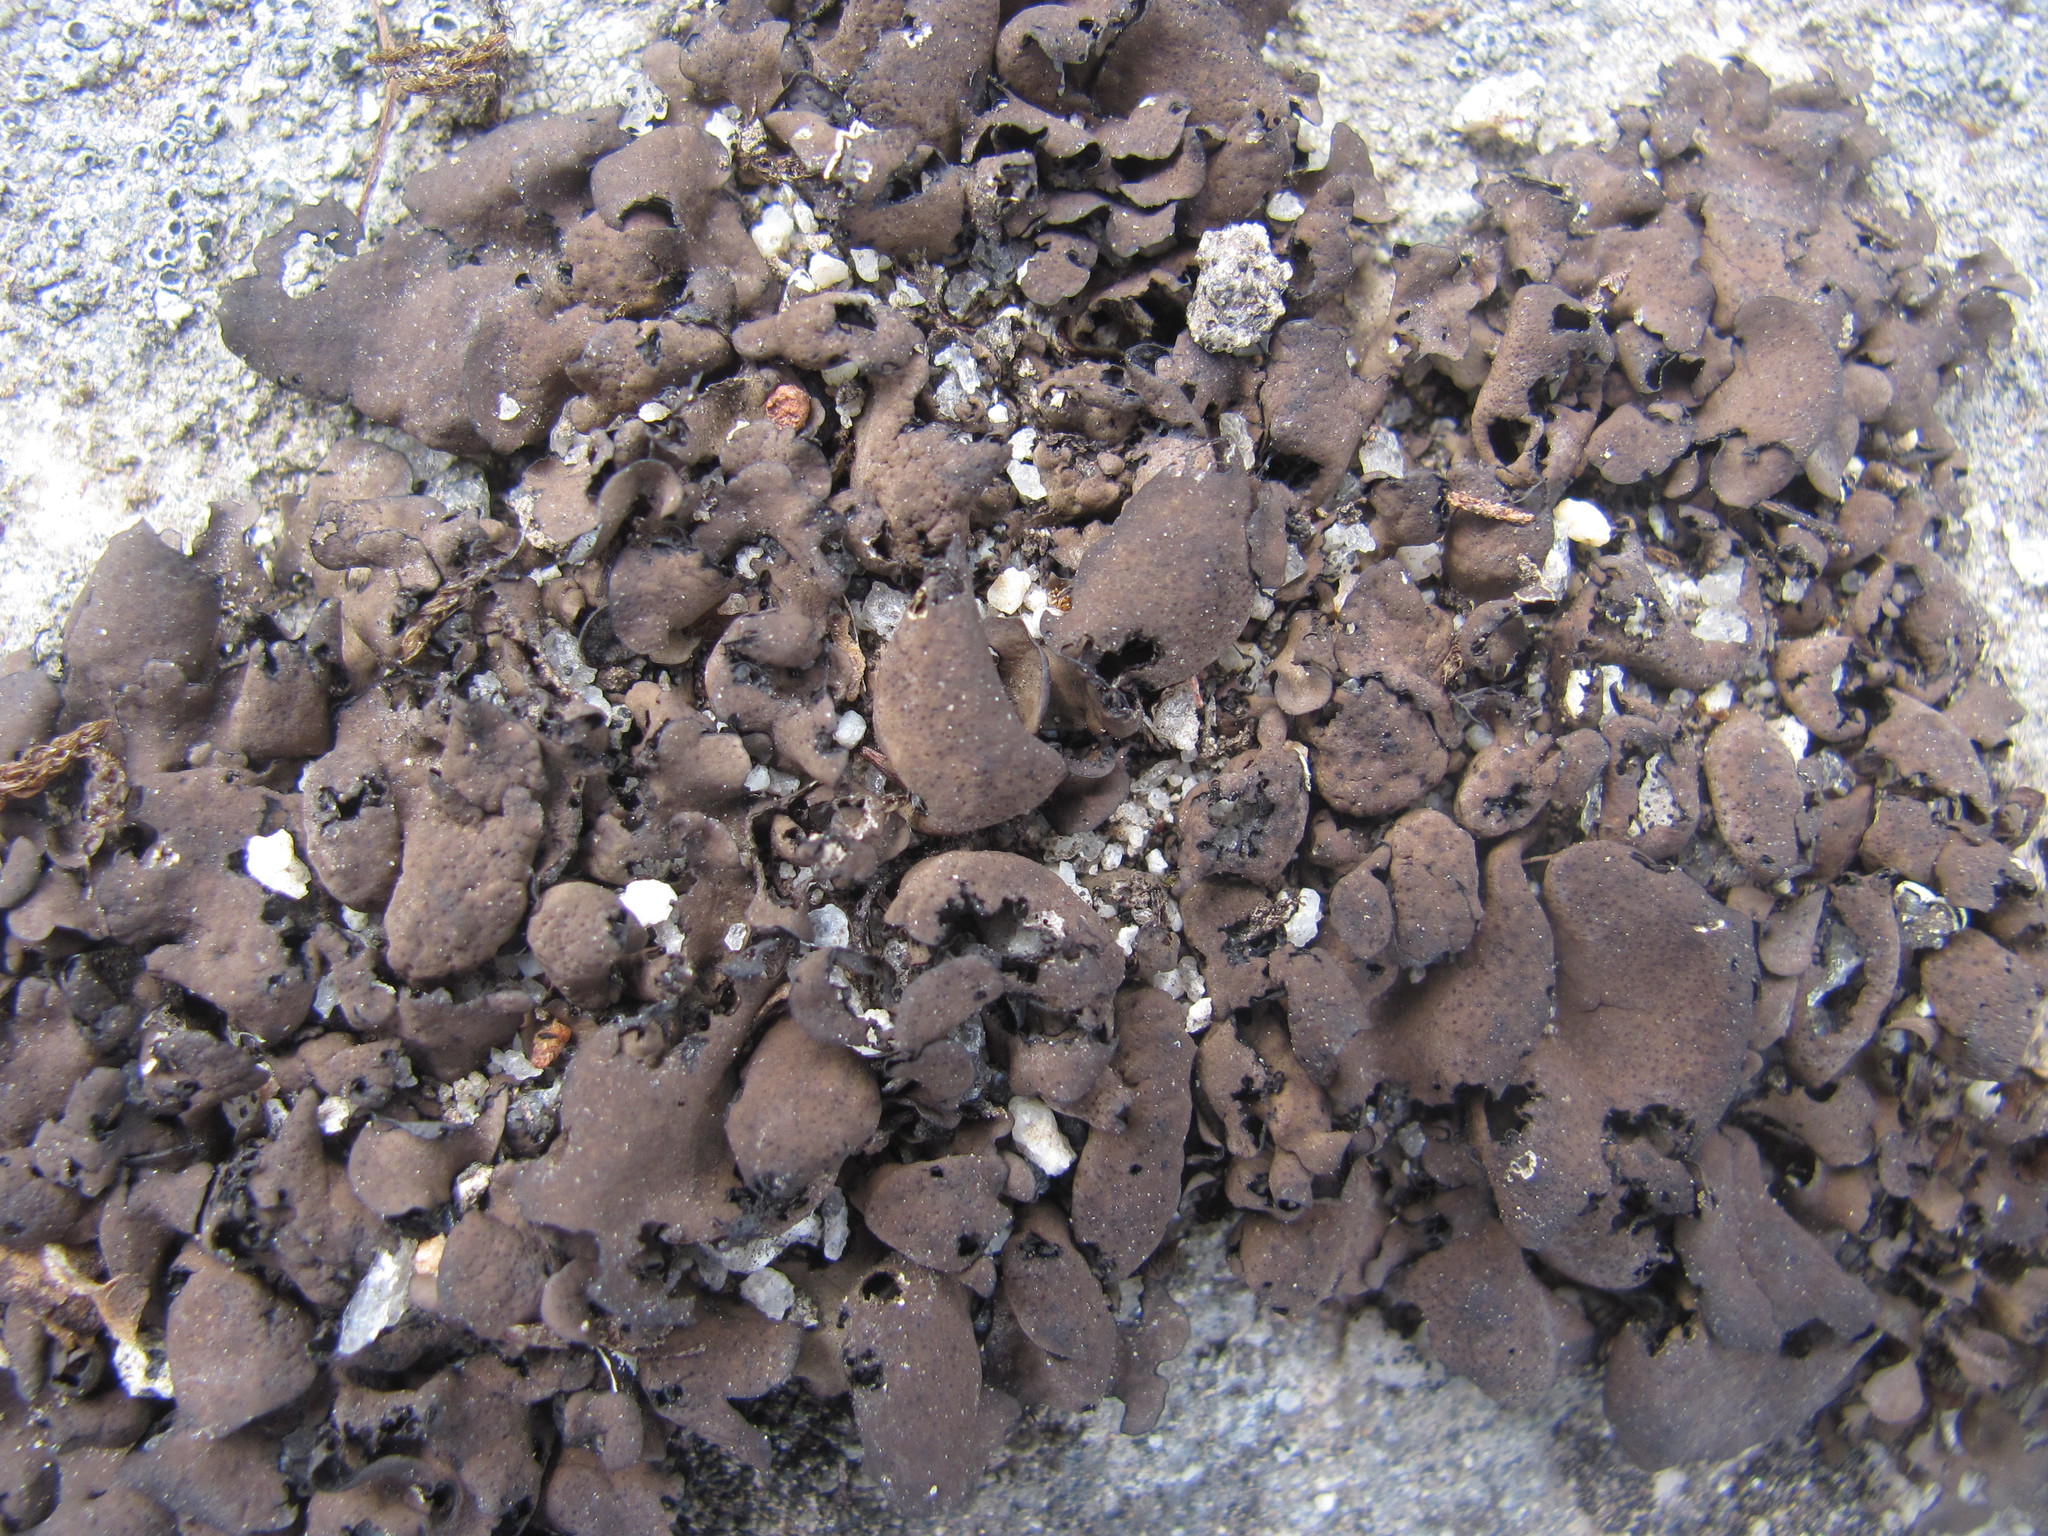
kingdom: Fungi
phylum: Ascomycota
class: Eurotiomycetes
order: Verrucariales
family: Verrucariaceae
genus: Dermatocarpon
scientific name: Dermatocarpon luridum
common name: Brook stippleback lichen
